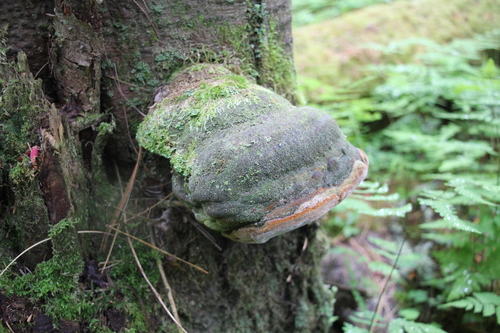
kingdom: Fungi
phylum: Basidiomycota
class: Agaricomycetes
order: Hymenochaetales
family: Hymenochaetaceae
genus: Phellinus
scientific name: Phellinus hartigii
